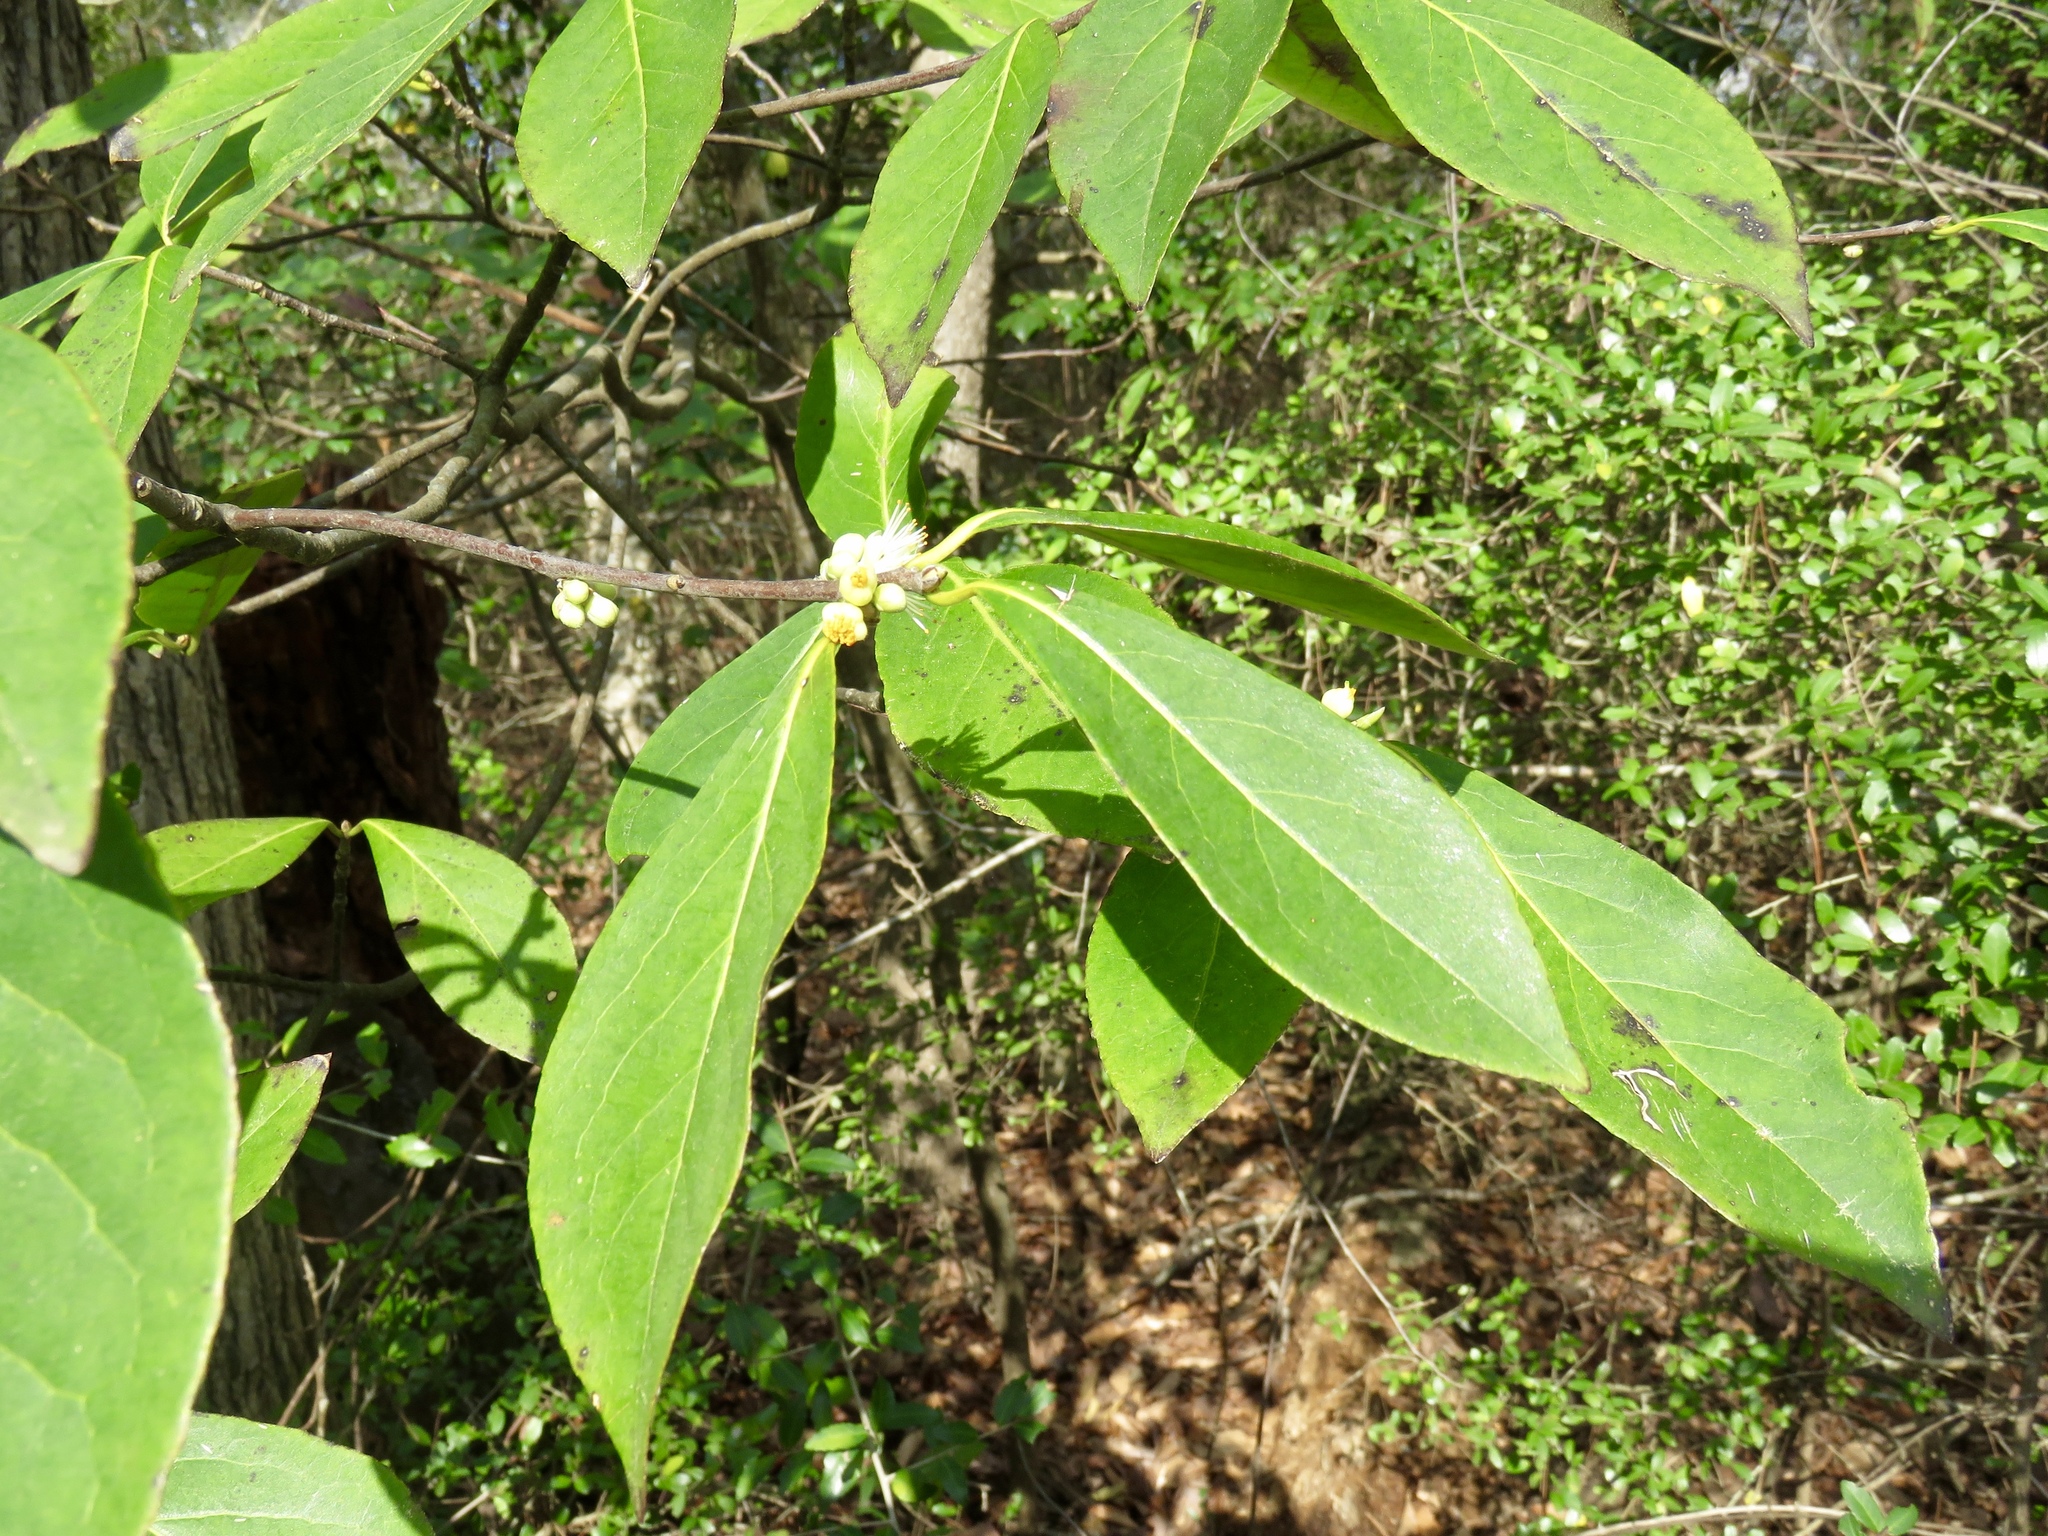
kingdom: Plantae
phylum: Tracheophyta
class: Magnoliopsida
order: Ericales
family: Symplocaceae
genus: Symplocos
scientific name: Symplocos tinctoria
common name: Horse-sugar
